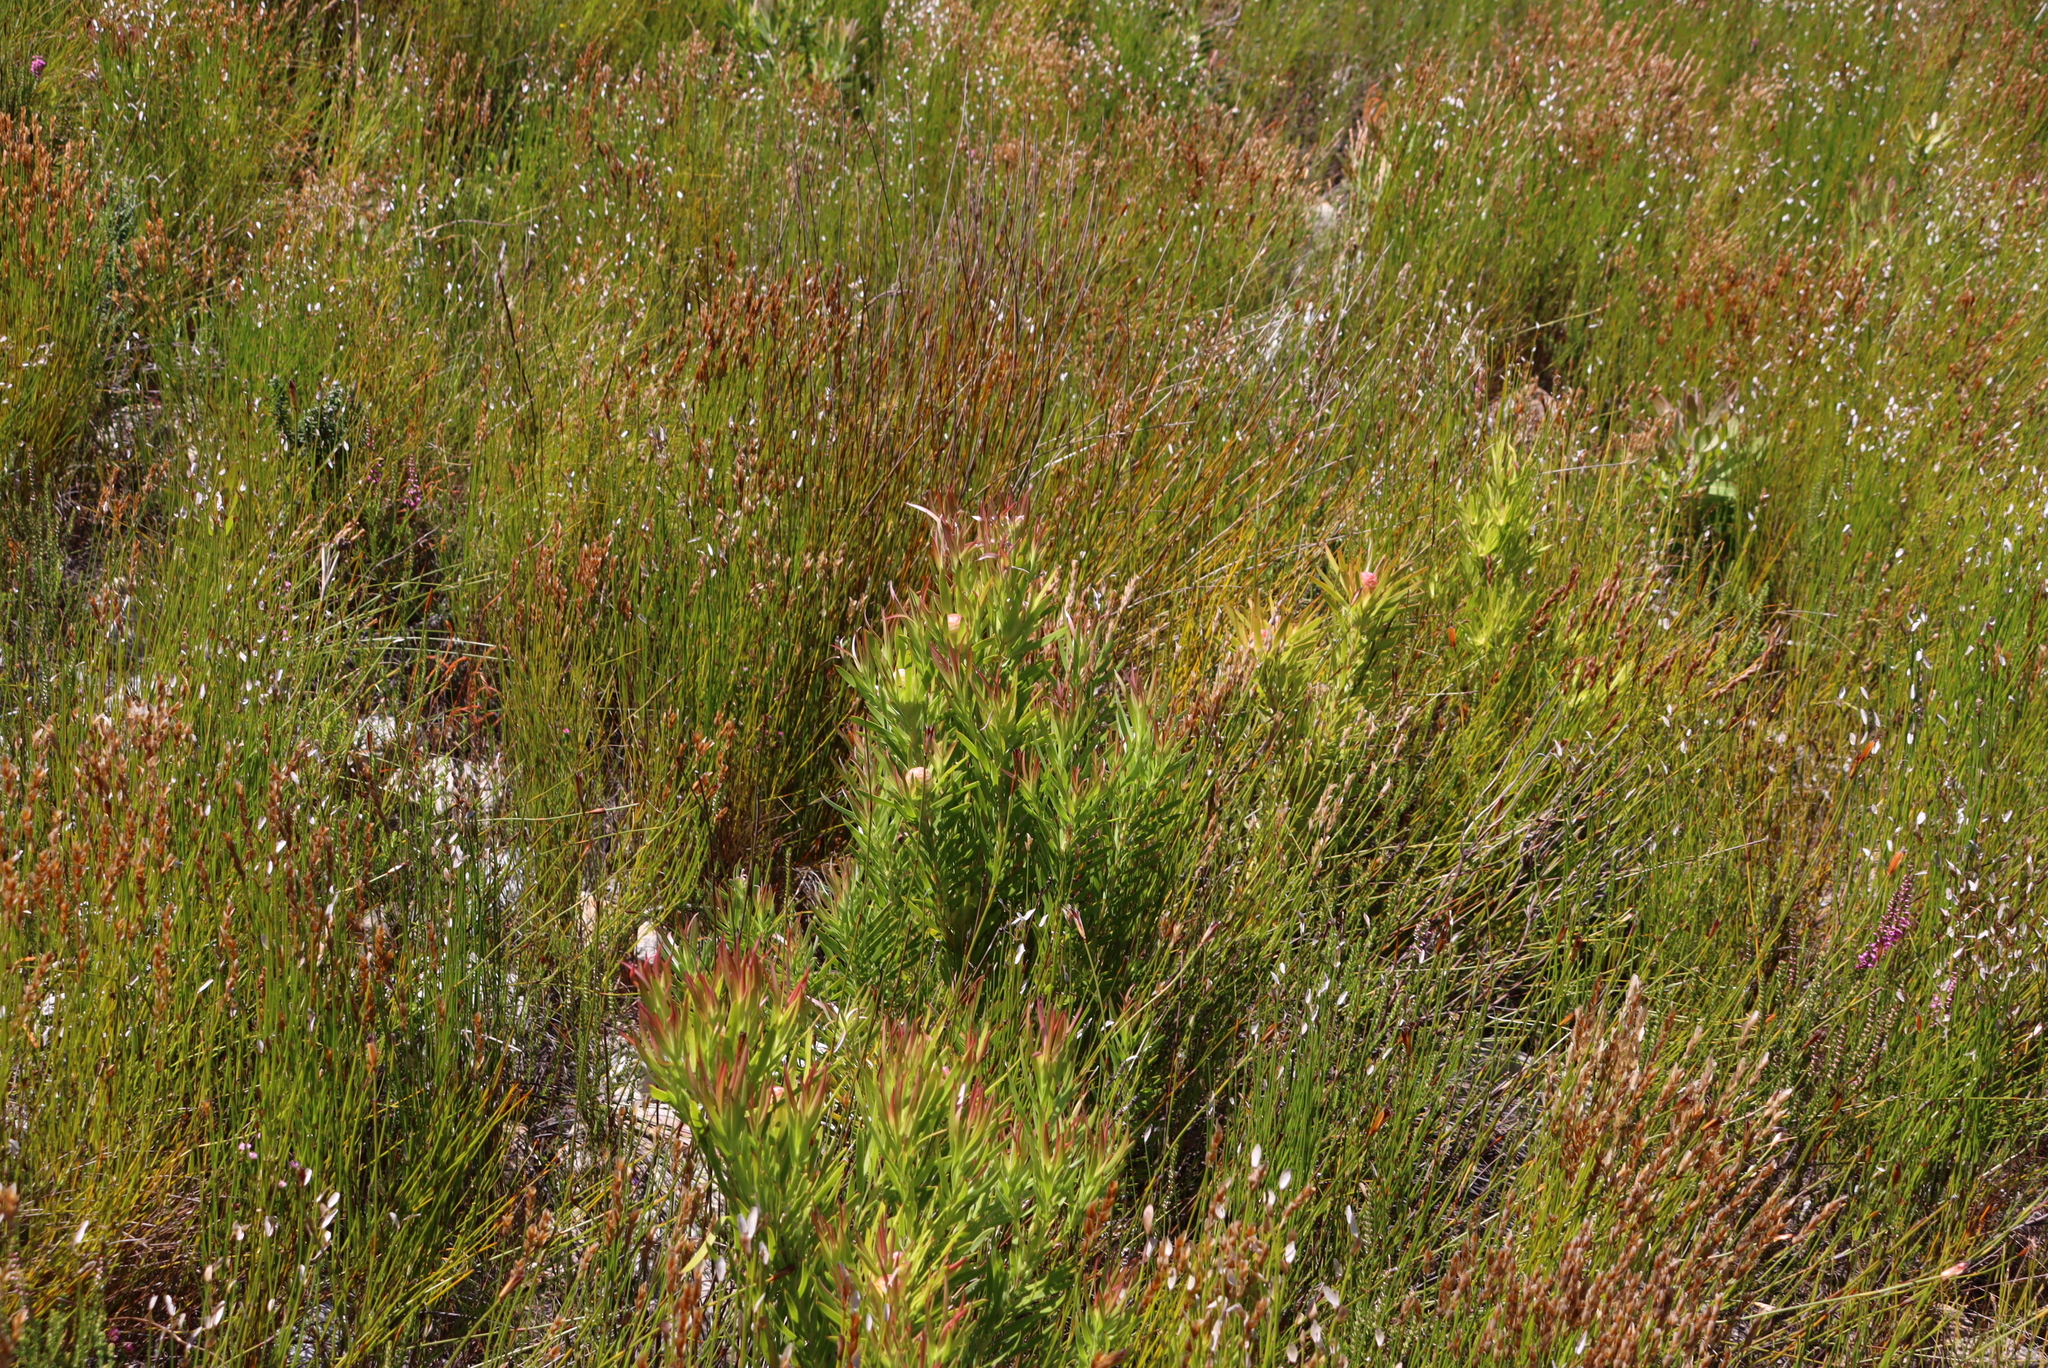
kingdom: Plantae
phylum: Tracheophyta
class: Magnoliopsida
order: Proteales
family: Proteaceae
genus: Leucadendron
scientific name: Leucadendron xanthoconus
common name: Sickle-leaf conebush
